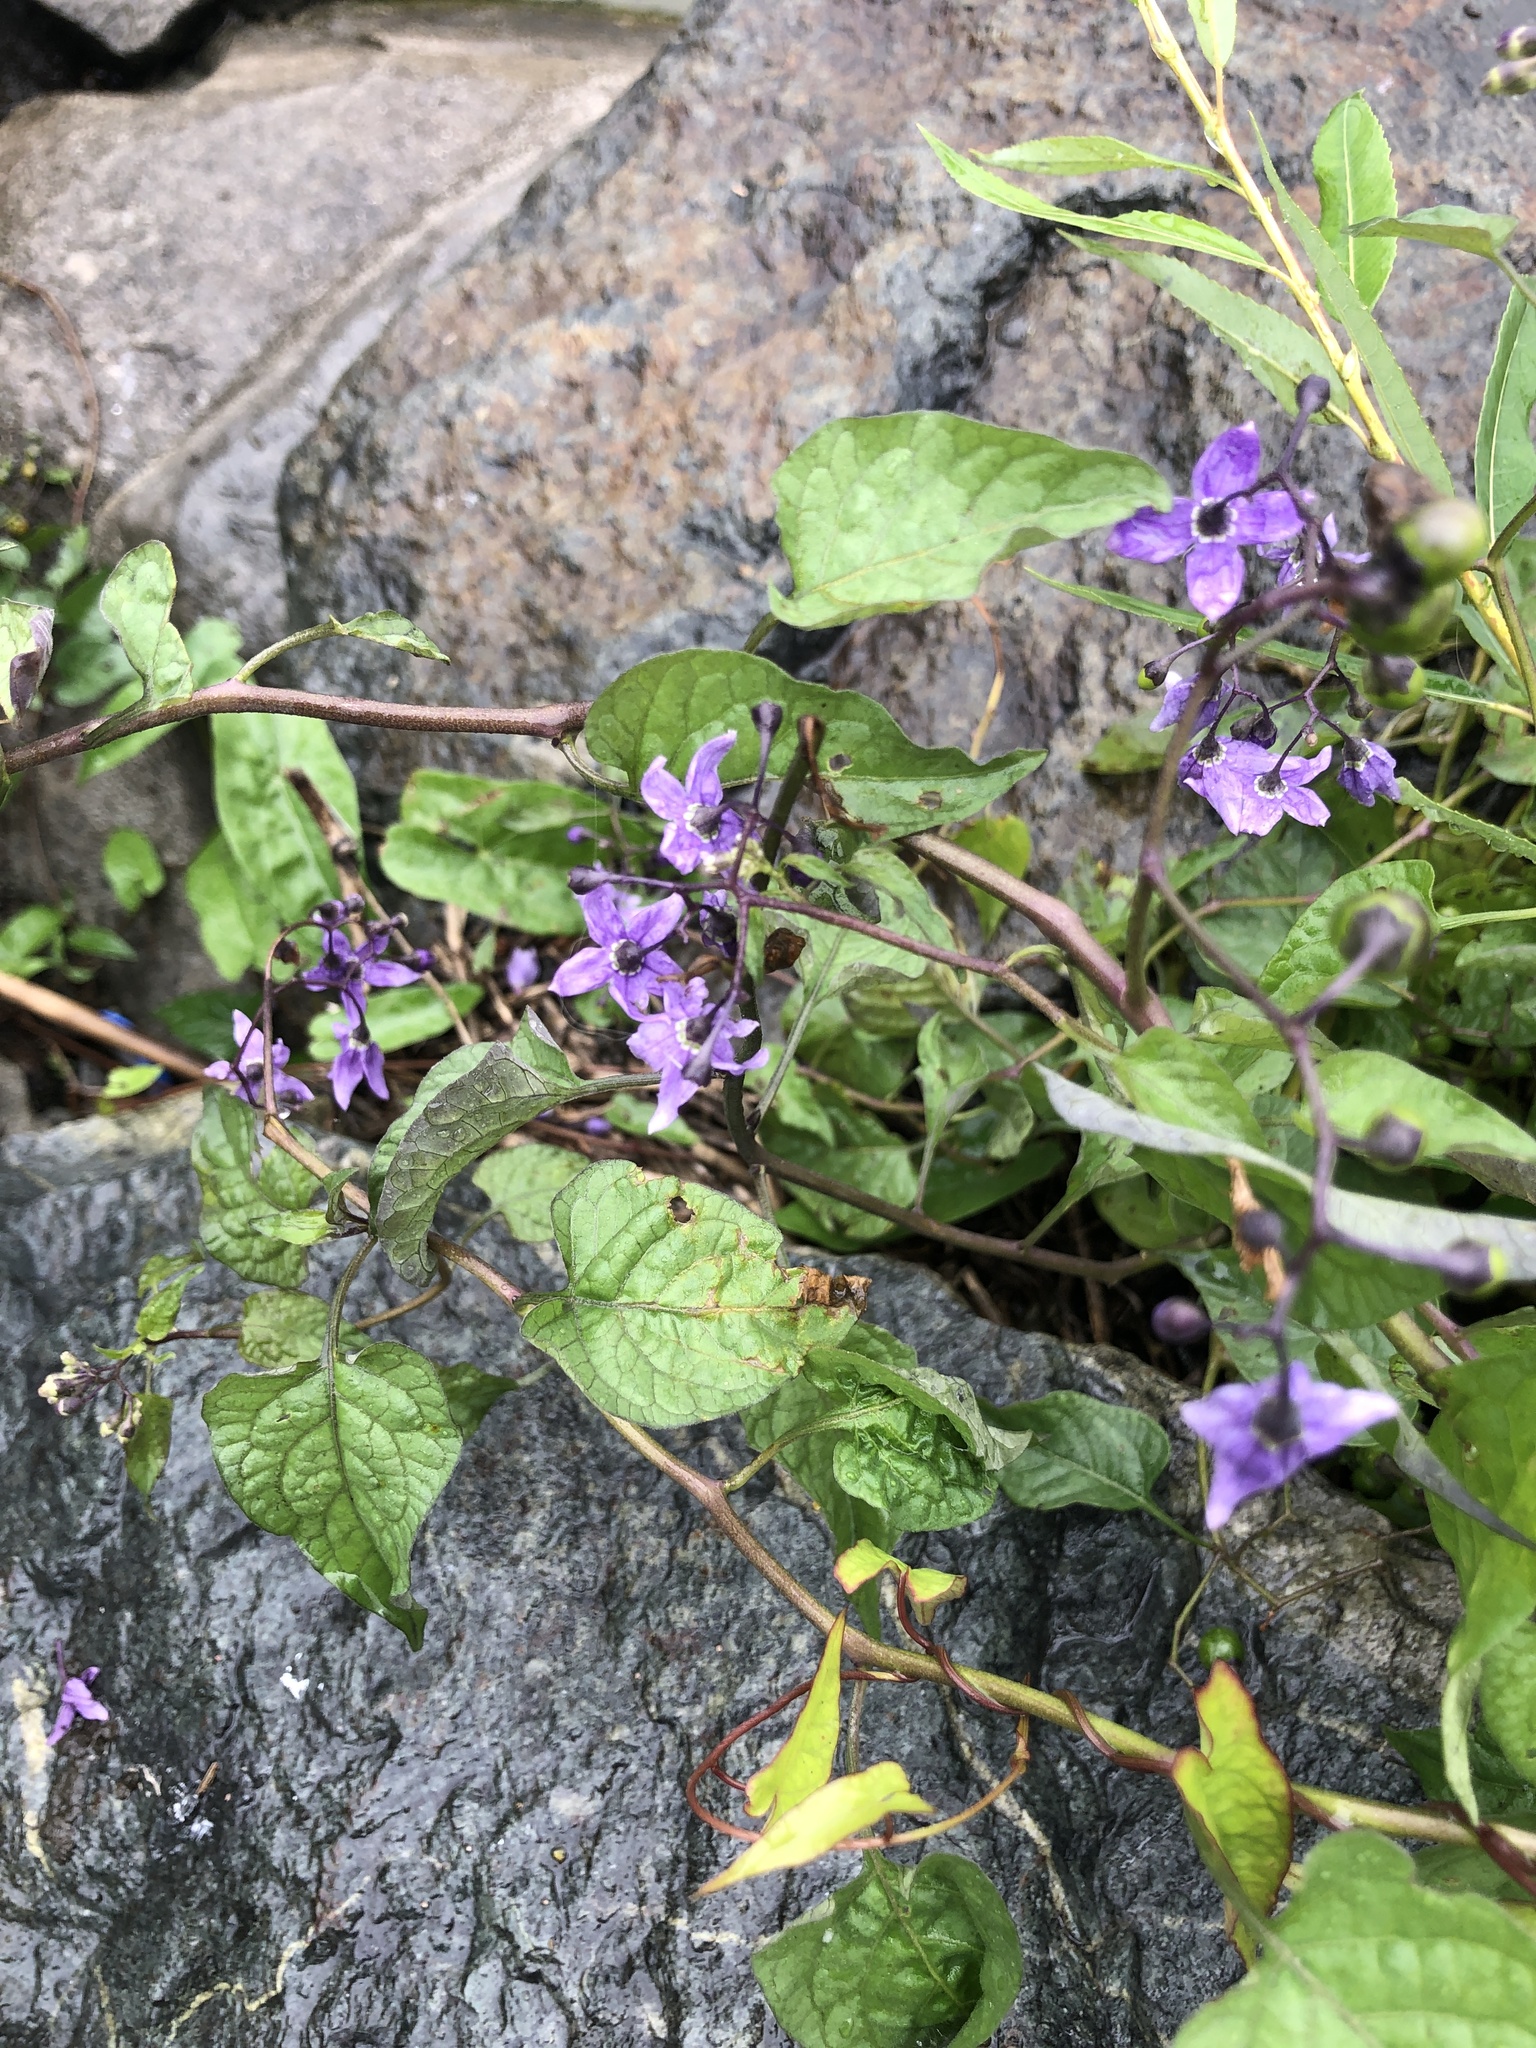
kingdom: Plantae
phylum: Tracheophyta
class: Magnoliopsida
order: Solanales
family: Solanaceae
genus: Solanum
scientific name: Solanum dulcamara
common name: Climbing nightshade
